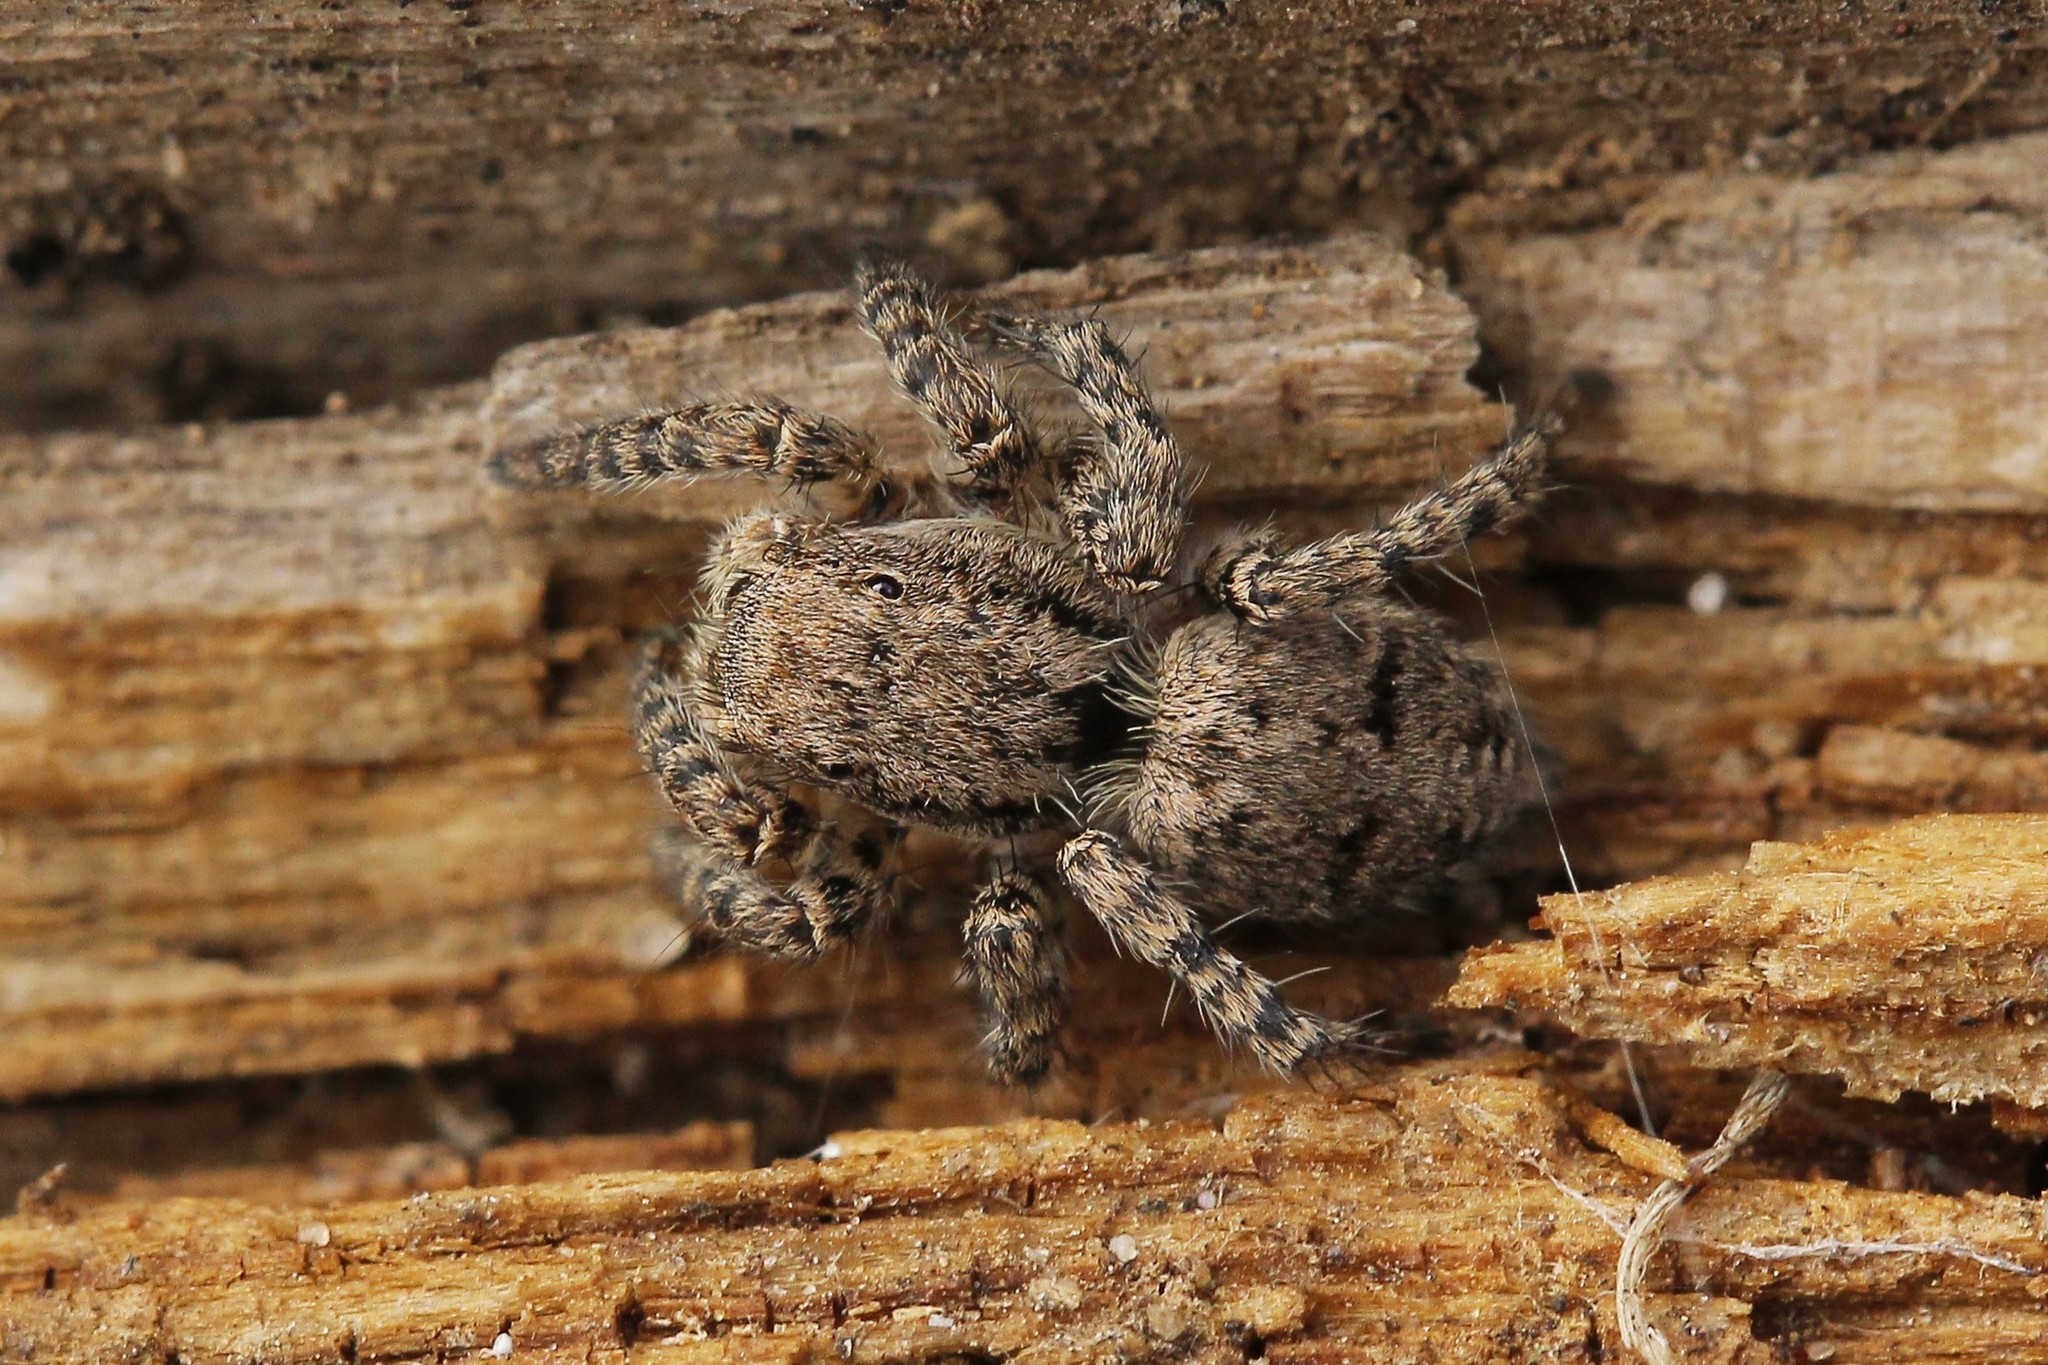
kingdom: Animalia
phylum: Arthropoda
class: Arachnida
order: Araneae
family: Salticidae
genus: Asianellus
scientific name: Asianellus festivus
